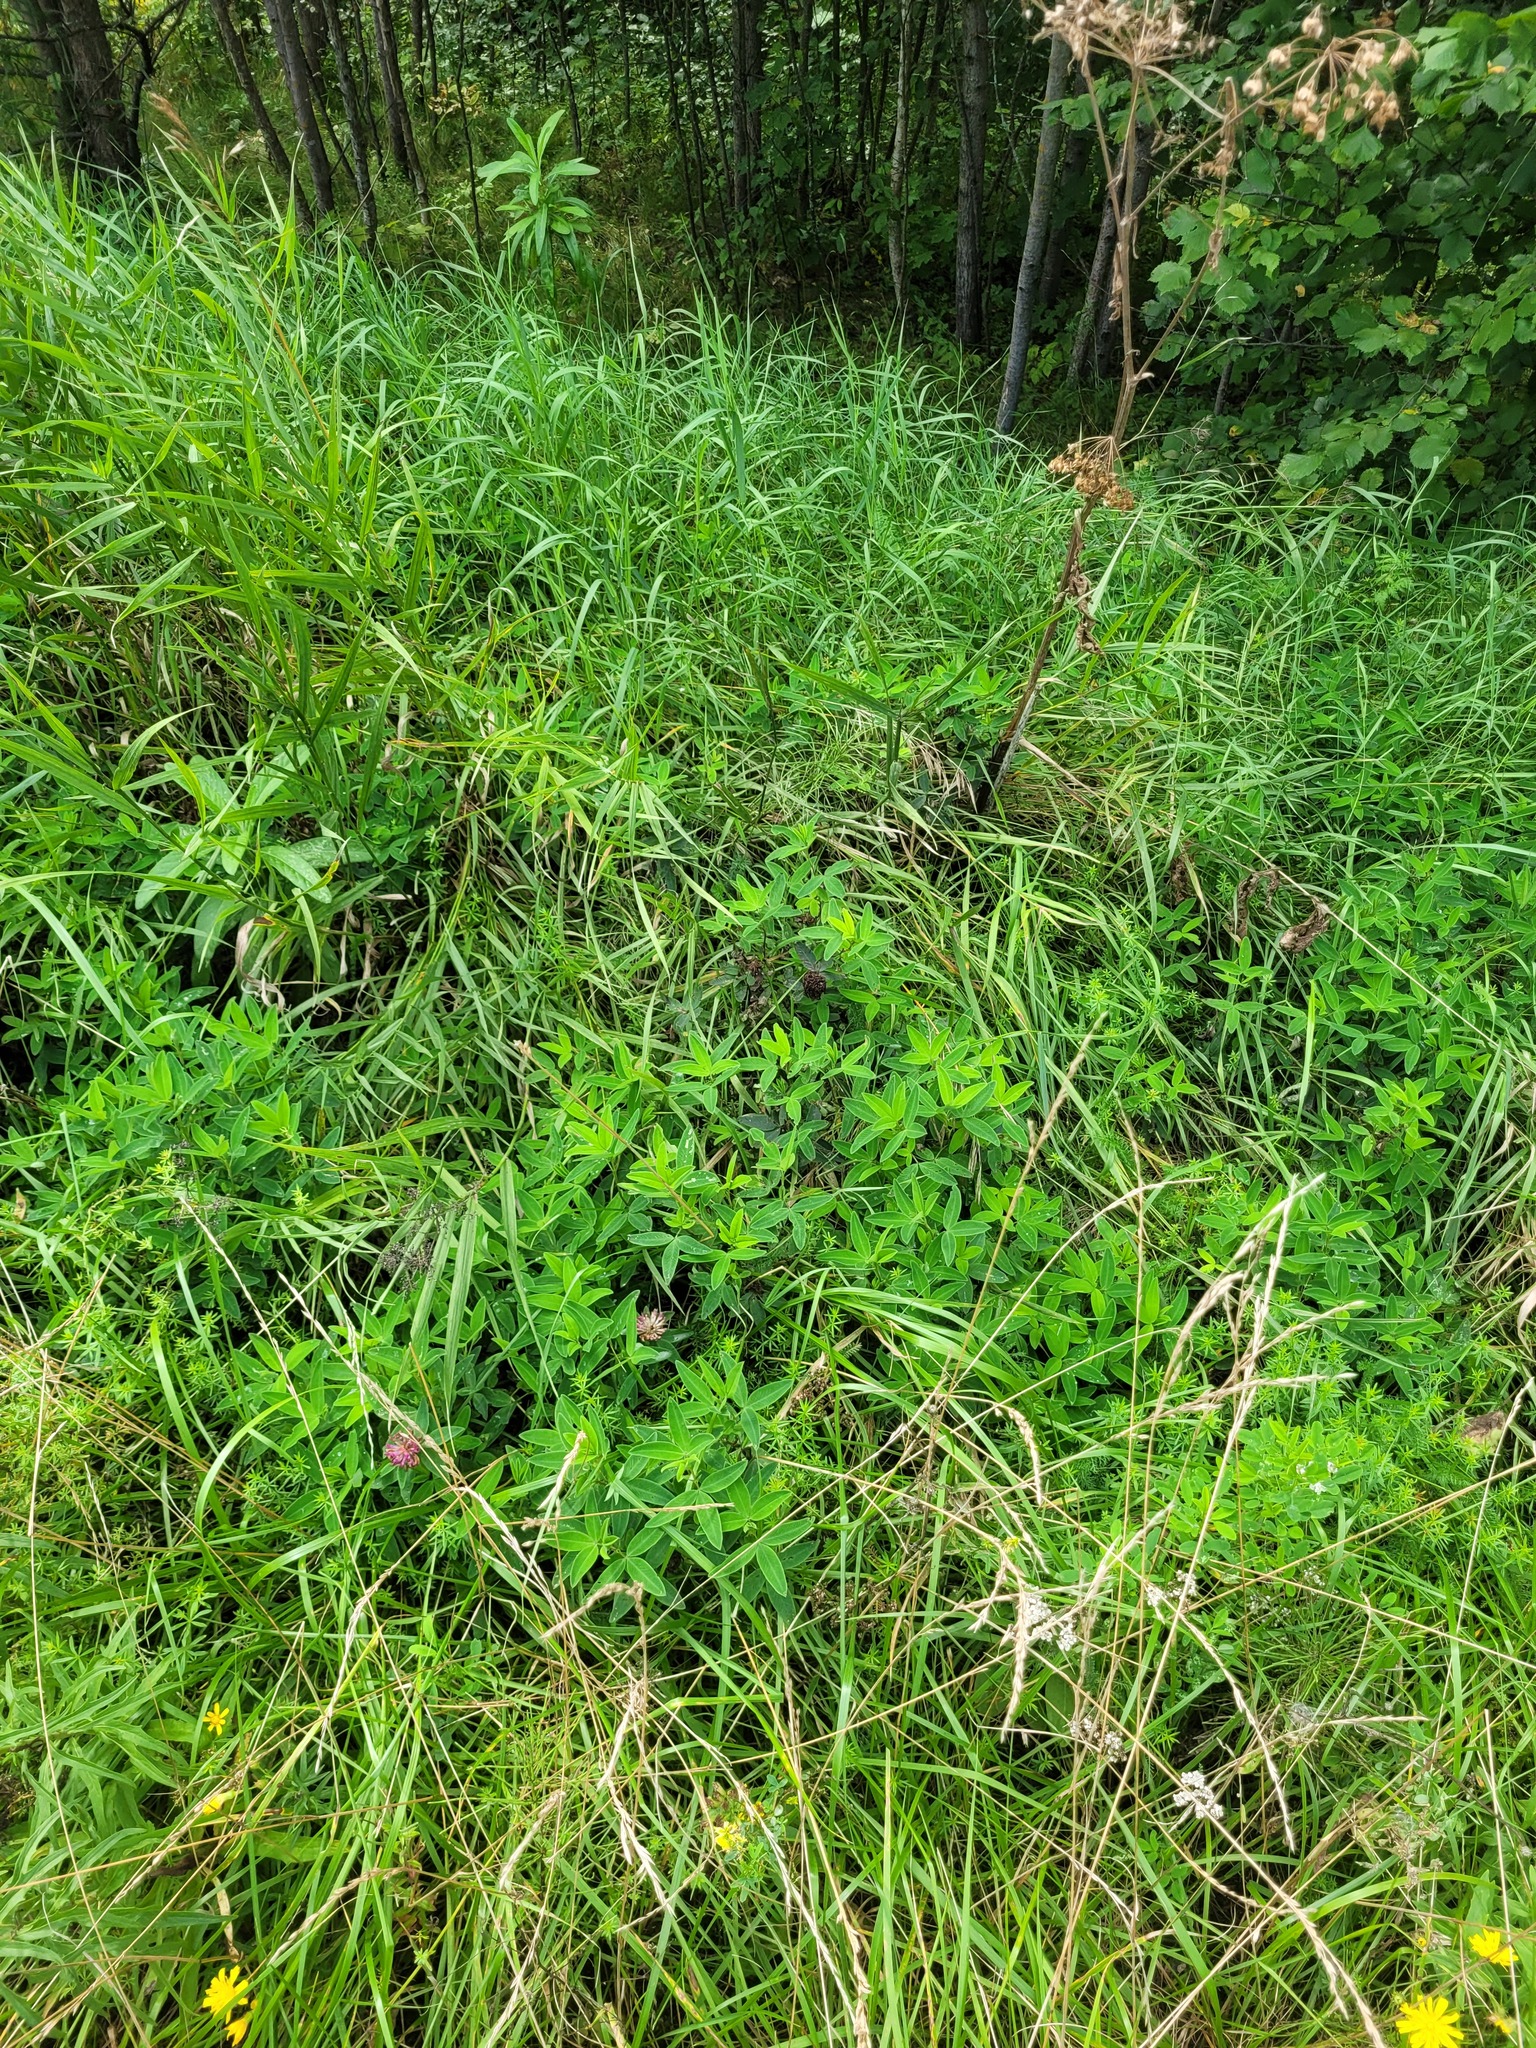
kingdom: Plantae
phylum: Tracheophyta
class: Magnoliopsida
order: Fabales
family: Fabaceae
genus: Trifolium
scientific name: Trifolium medium
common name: Zigzag clover
